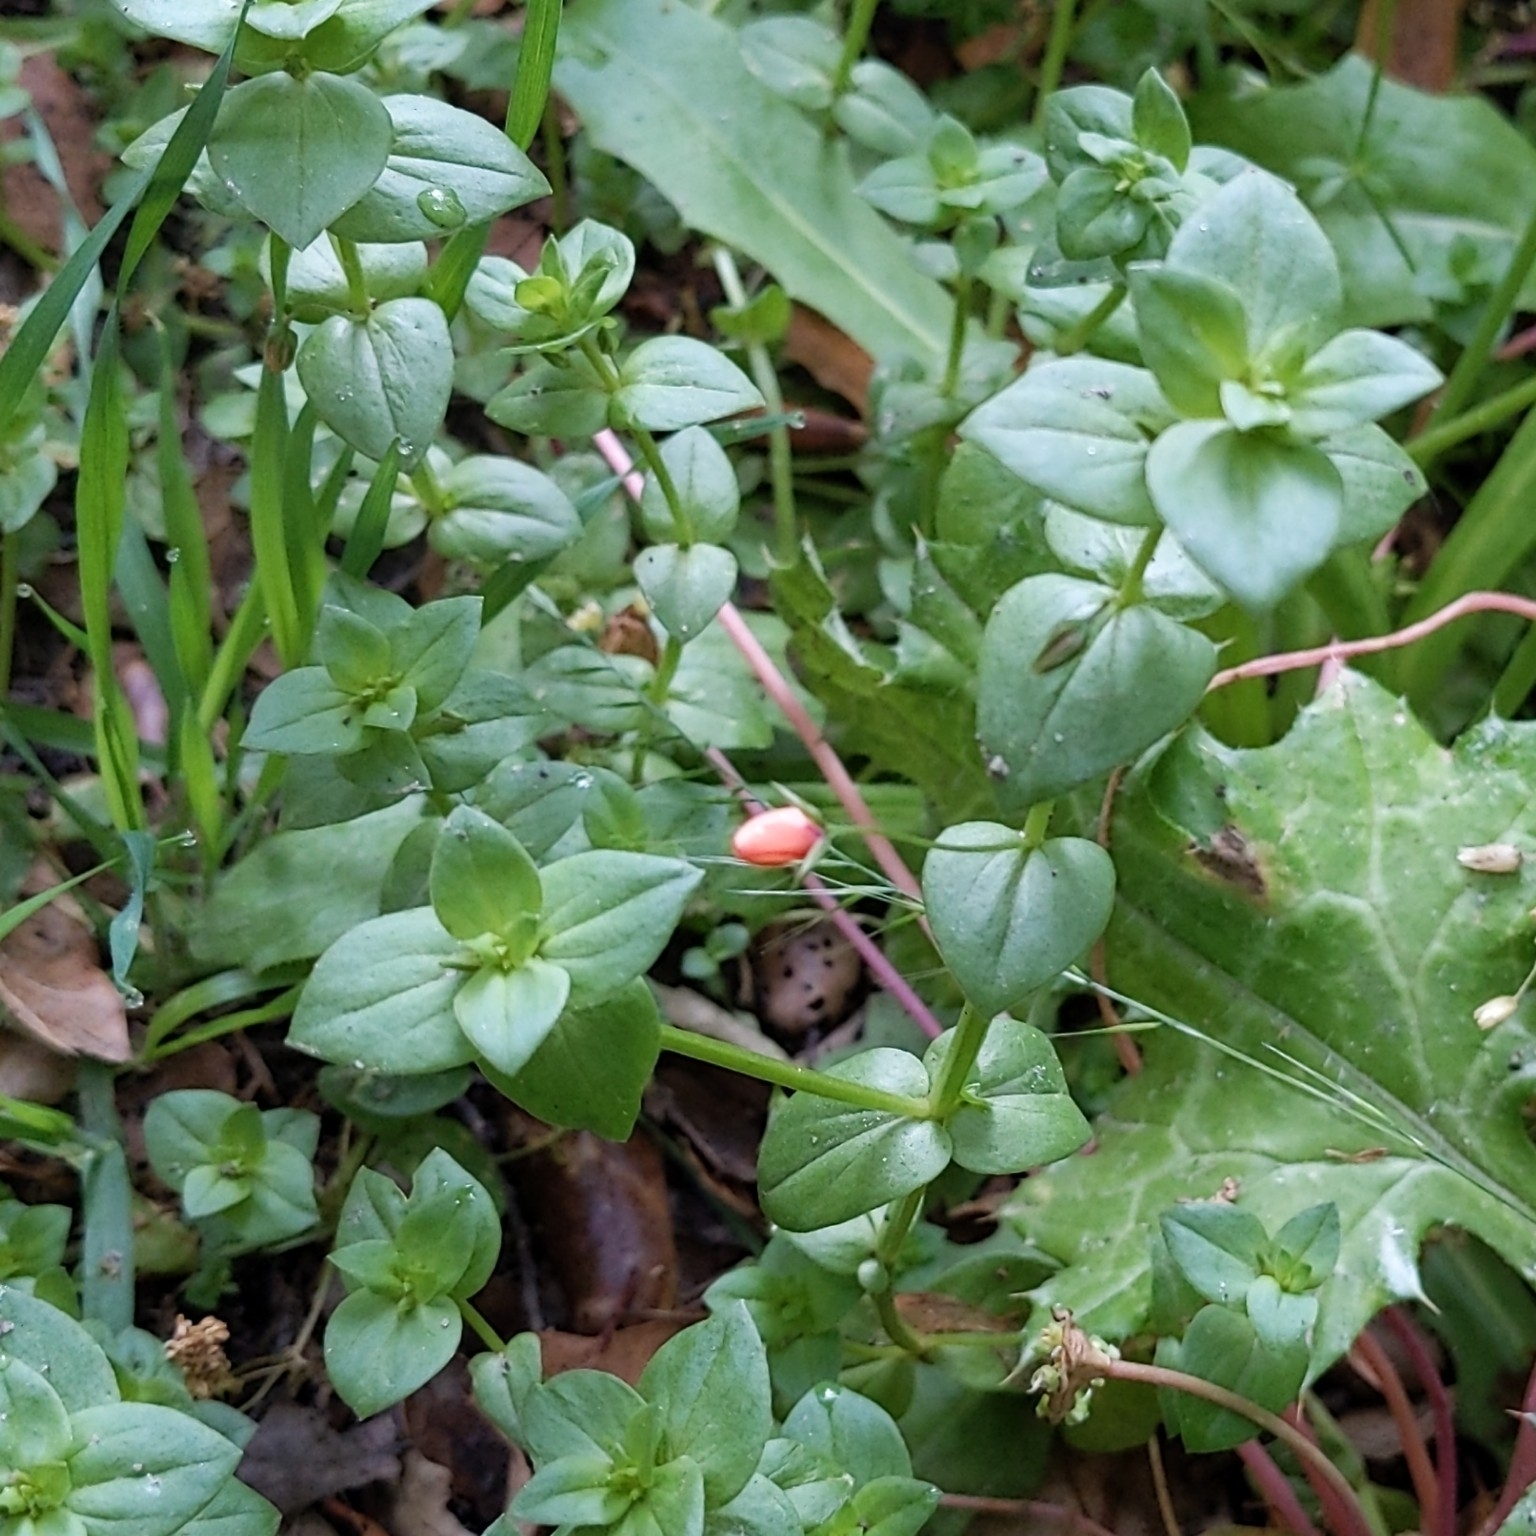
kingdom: Plantae
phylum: Tracheophyta
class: Magnoliopsida
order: Ericales
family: Primulaceae
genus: Lysimachia
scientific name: Lysimachia arvensis
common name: Scarlet pimpernel
